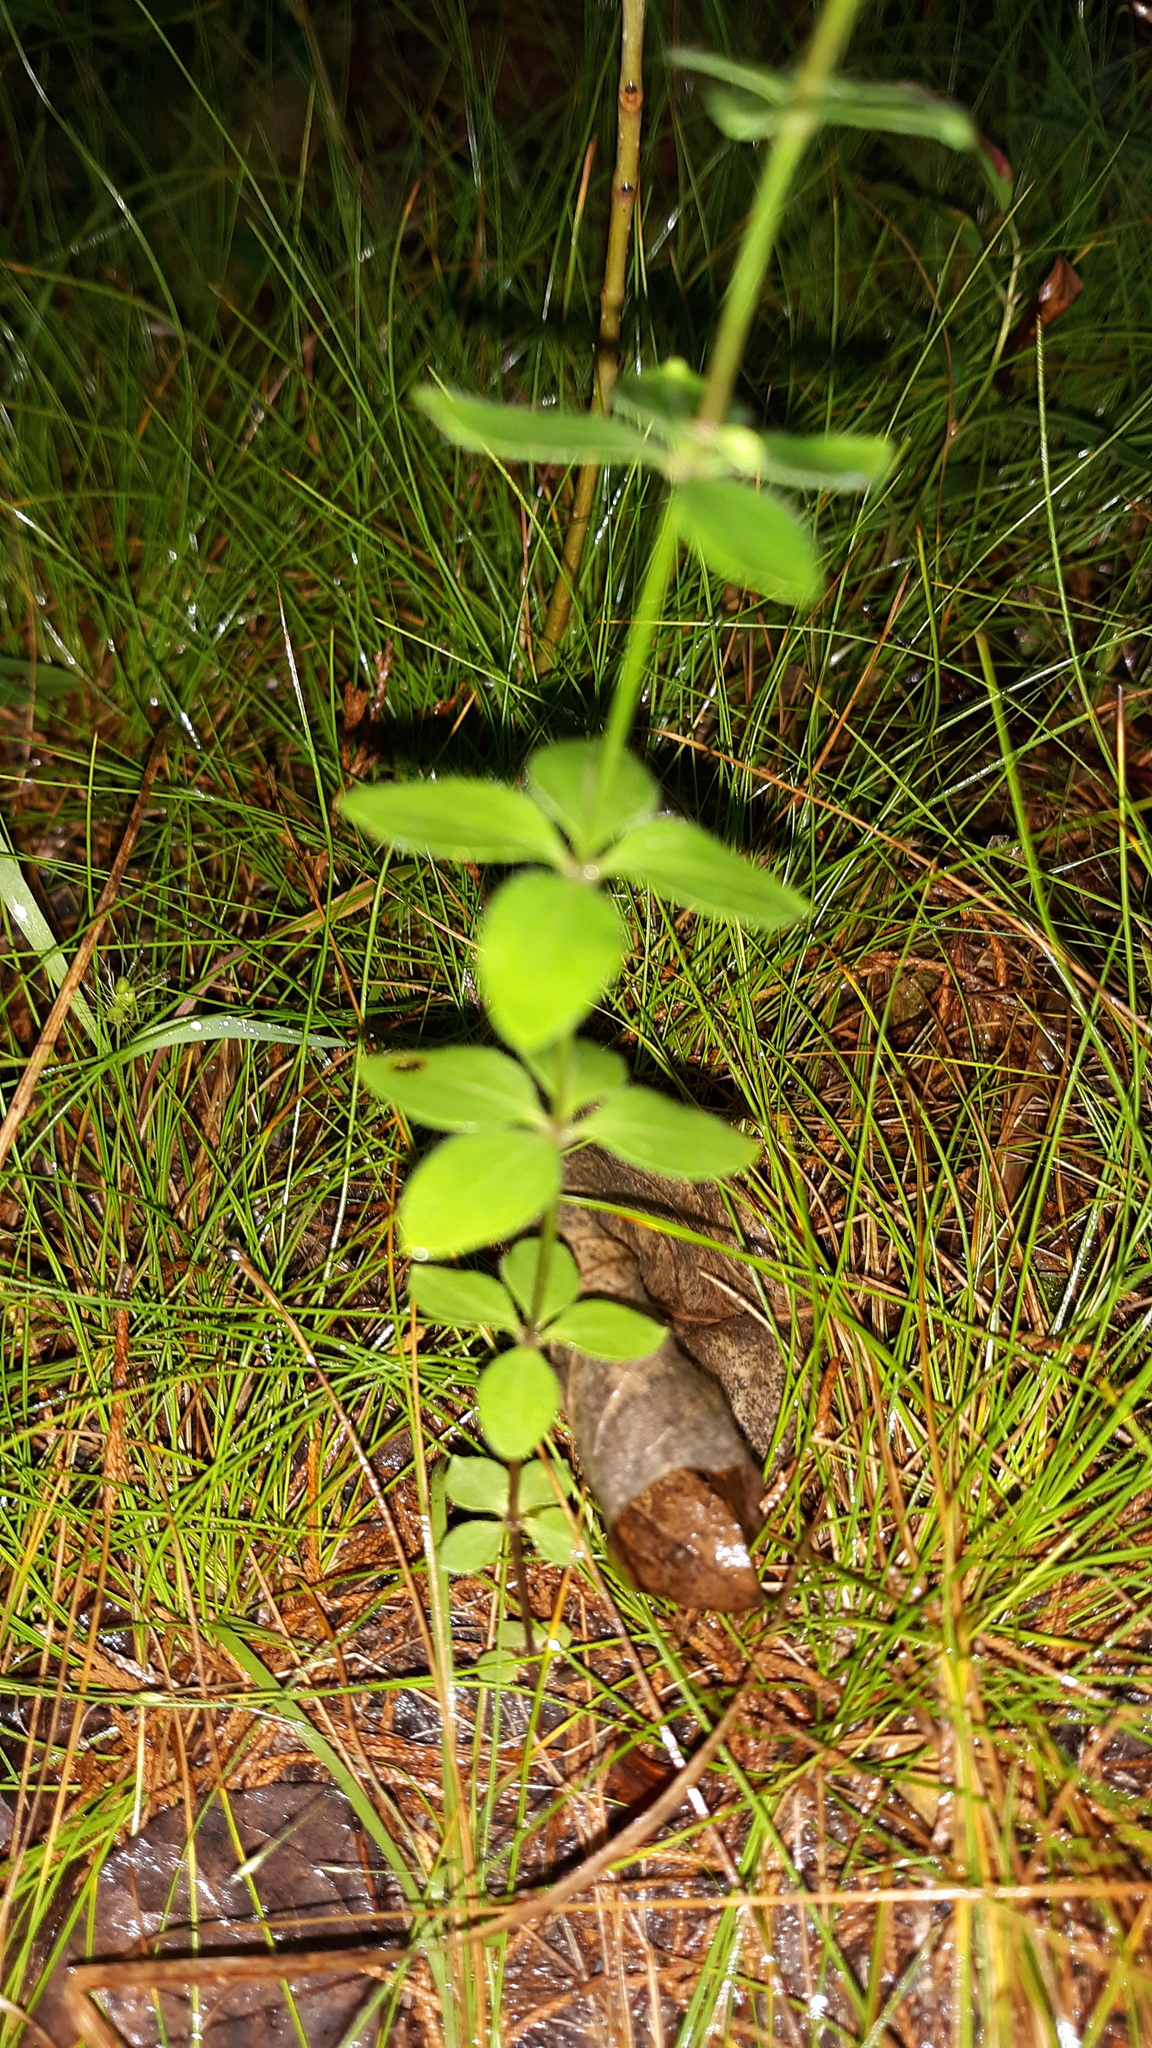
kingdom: Plantae
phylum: Tracheophyta
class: Magnoliopsida
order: Gentianales
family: Rubiaceae
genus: Galium
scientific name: Galium circaezans
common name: Forest bedstraw
